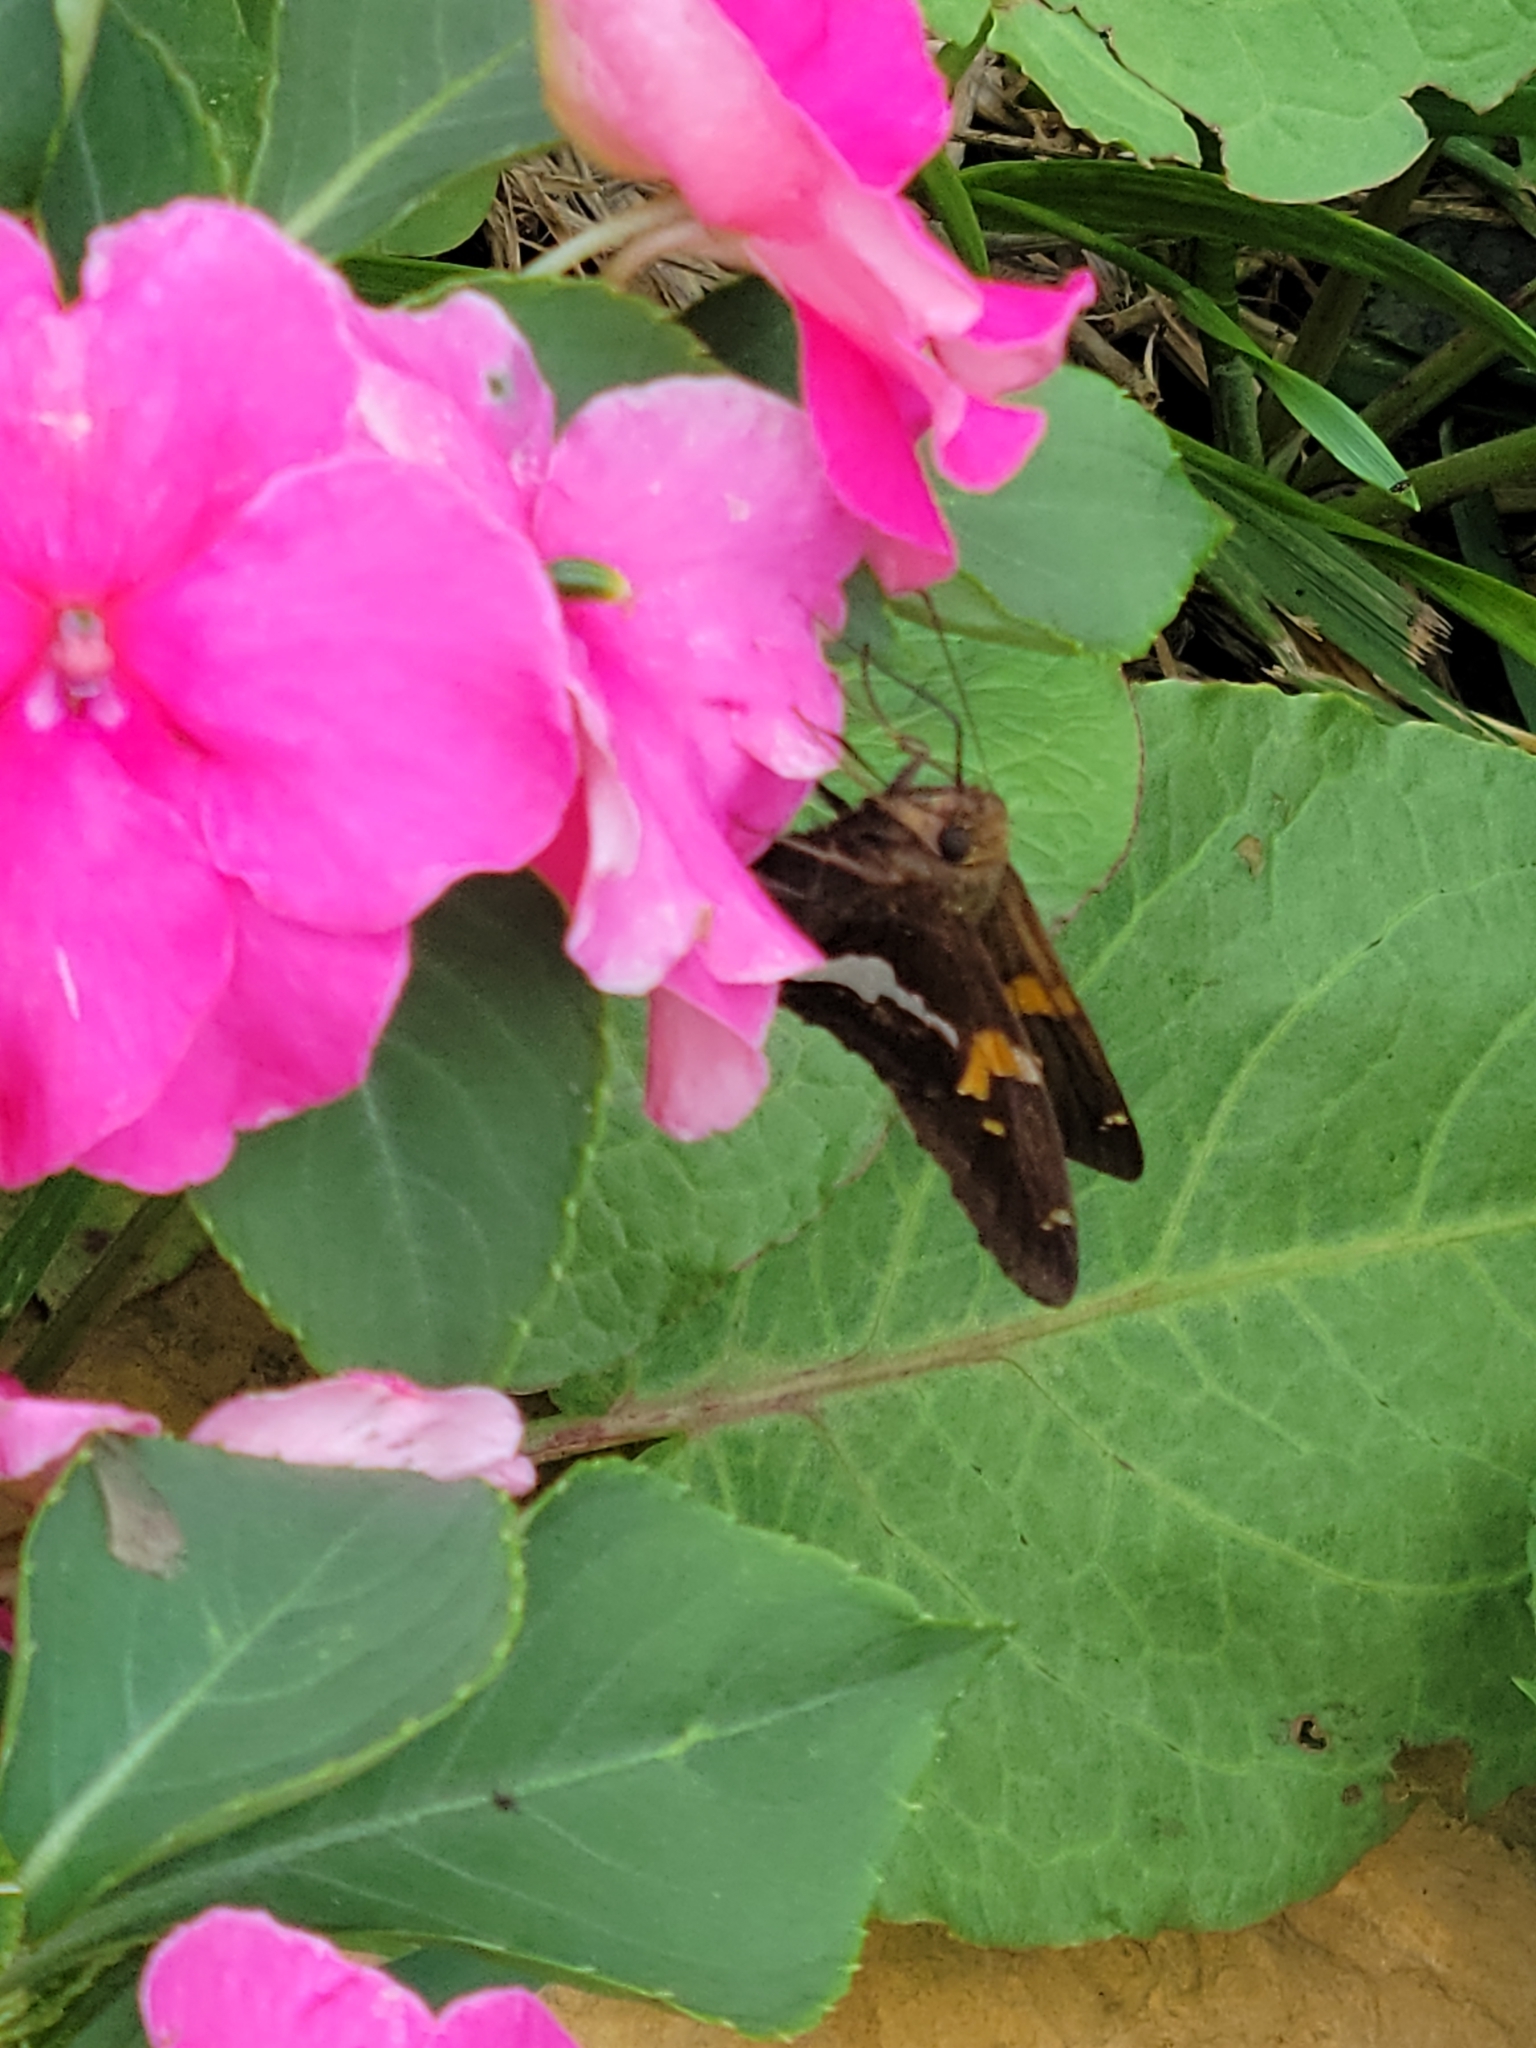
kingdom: Animalia
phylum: Arthropoda
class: Insecta
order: Lepidoptera
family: Hesperiidae
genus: Epargyreus
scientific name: Epargyreus clarus
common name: Silver-spotted skipper
